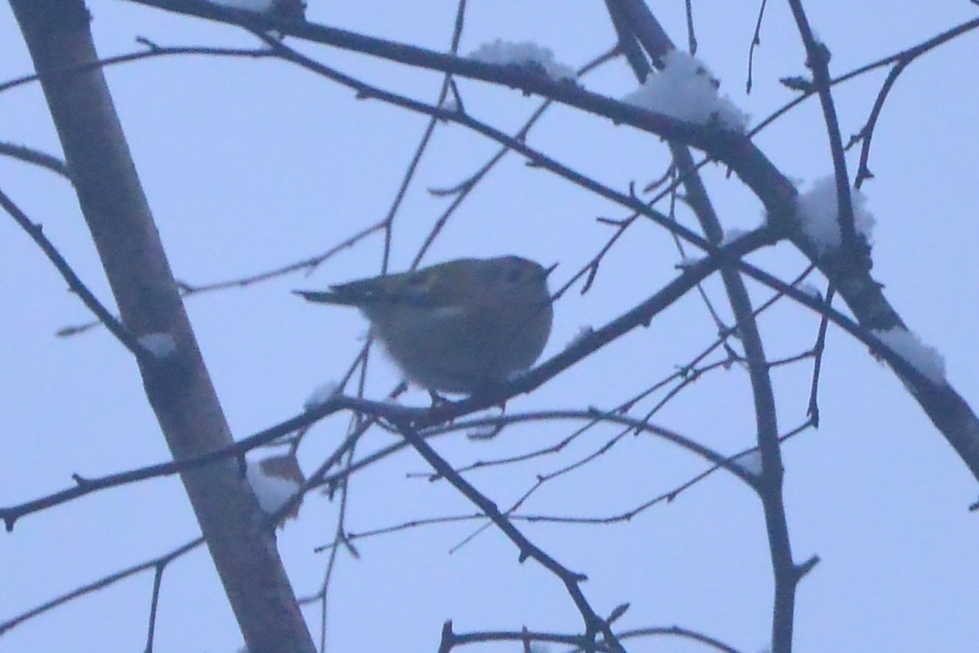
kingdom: Animalia
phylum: Chordata
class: Aves
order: Passeriformes
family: Regulidae
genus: Regulus
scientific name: Regulus regulus
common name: Goldcrest
